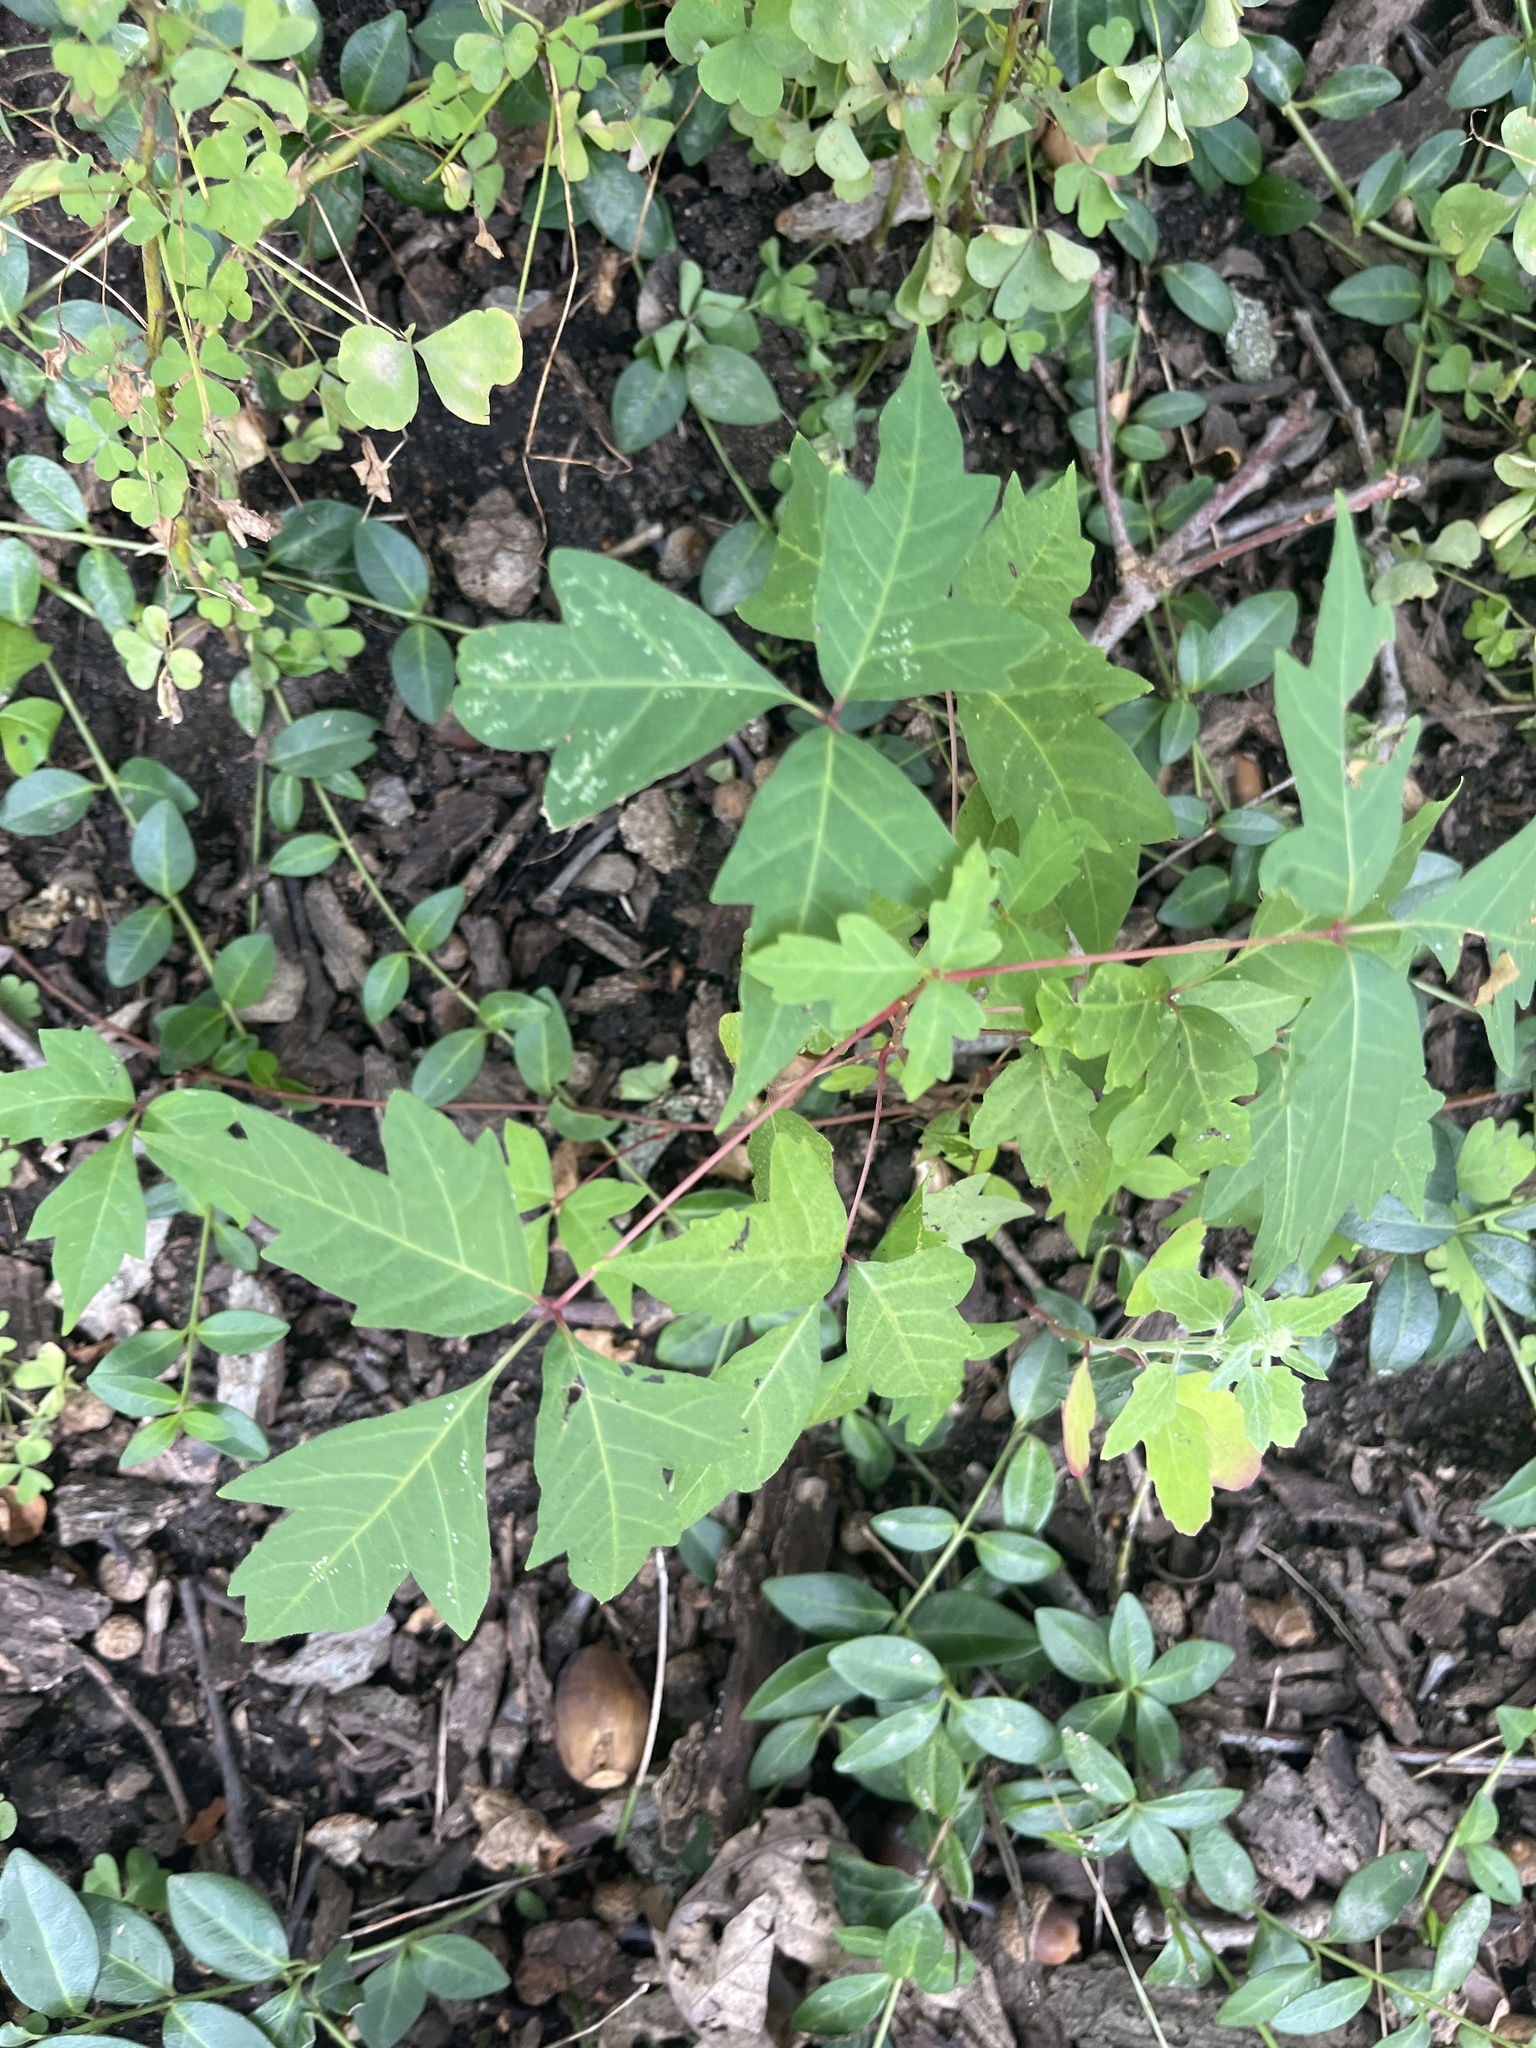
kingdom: Plantae
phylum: Tracheophyta
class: Magnoliopsida
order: Sapindales
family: Anacardiaceae
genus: Toxicodendron
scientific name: Toxicodendron radicans
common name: Poison ivy
